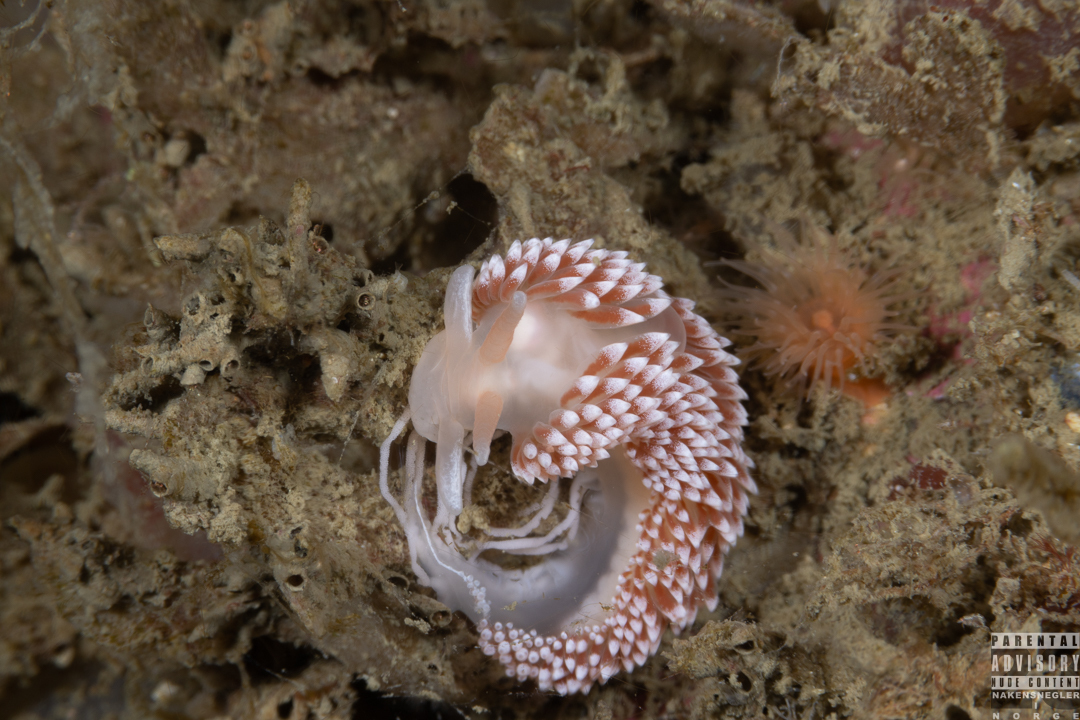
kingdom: Animalia
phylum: Mollusca
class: Gastropoda
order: Nudibranchia
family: Coryphellidae
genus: Coryphella
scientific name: Coryphella verrucosa
